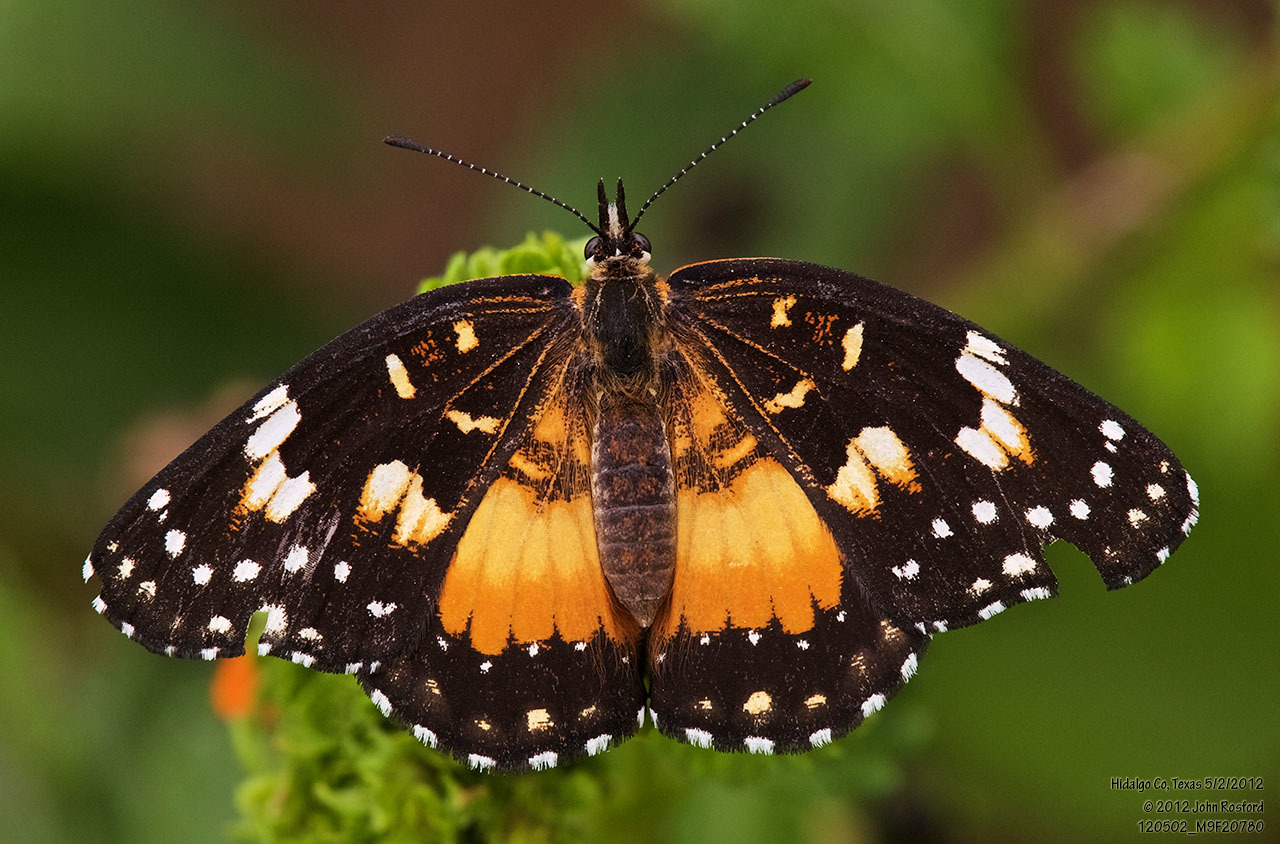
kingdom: Animalia
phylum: Arthropoda
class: Insecta
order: Lepidoptera
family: Nymphalidae
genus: Chlosyne
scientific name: Chlosyne lacinia
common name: Bordered patch
